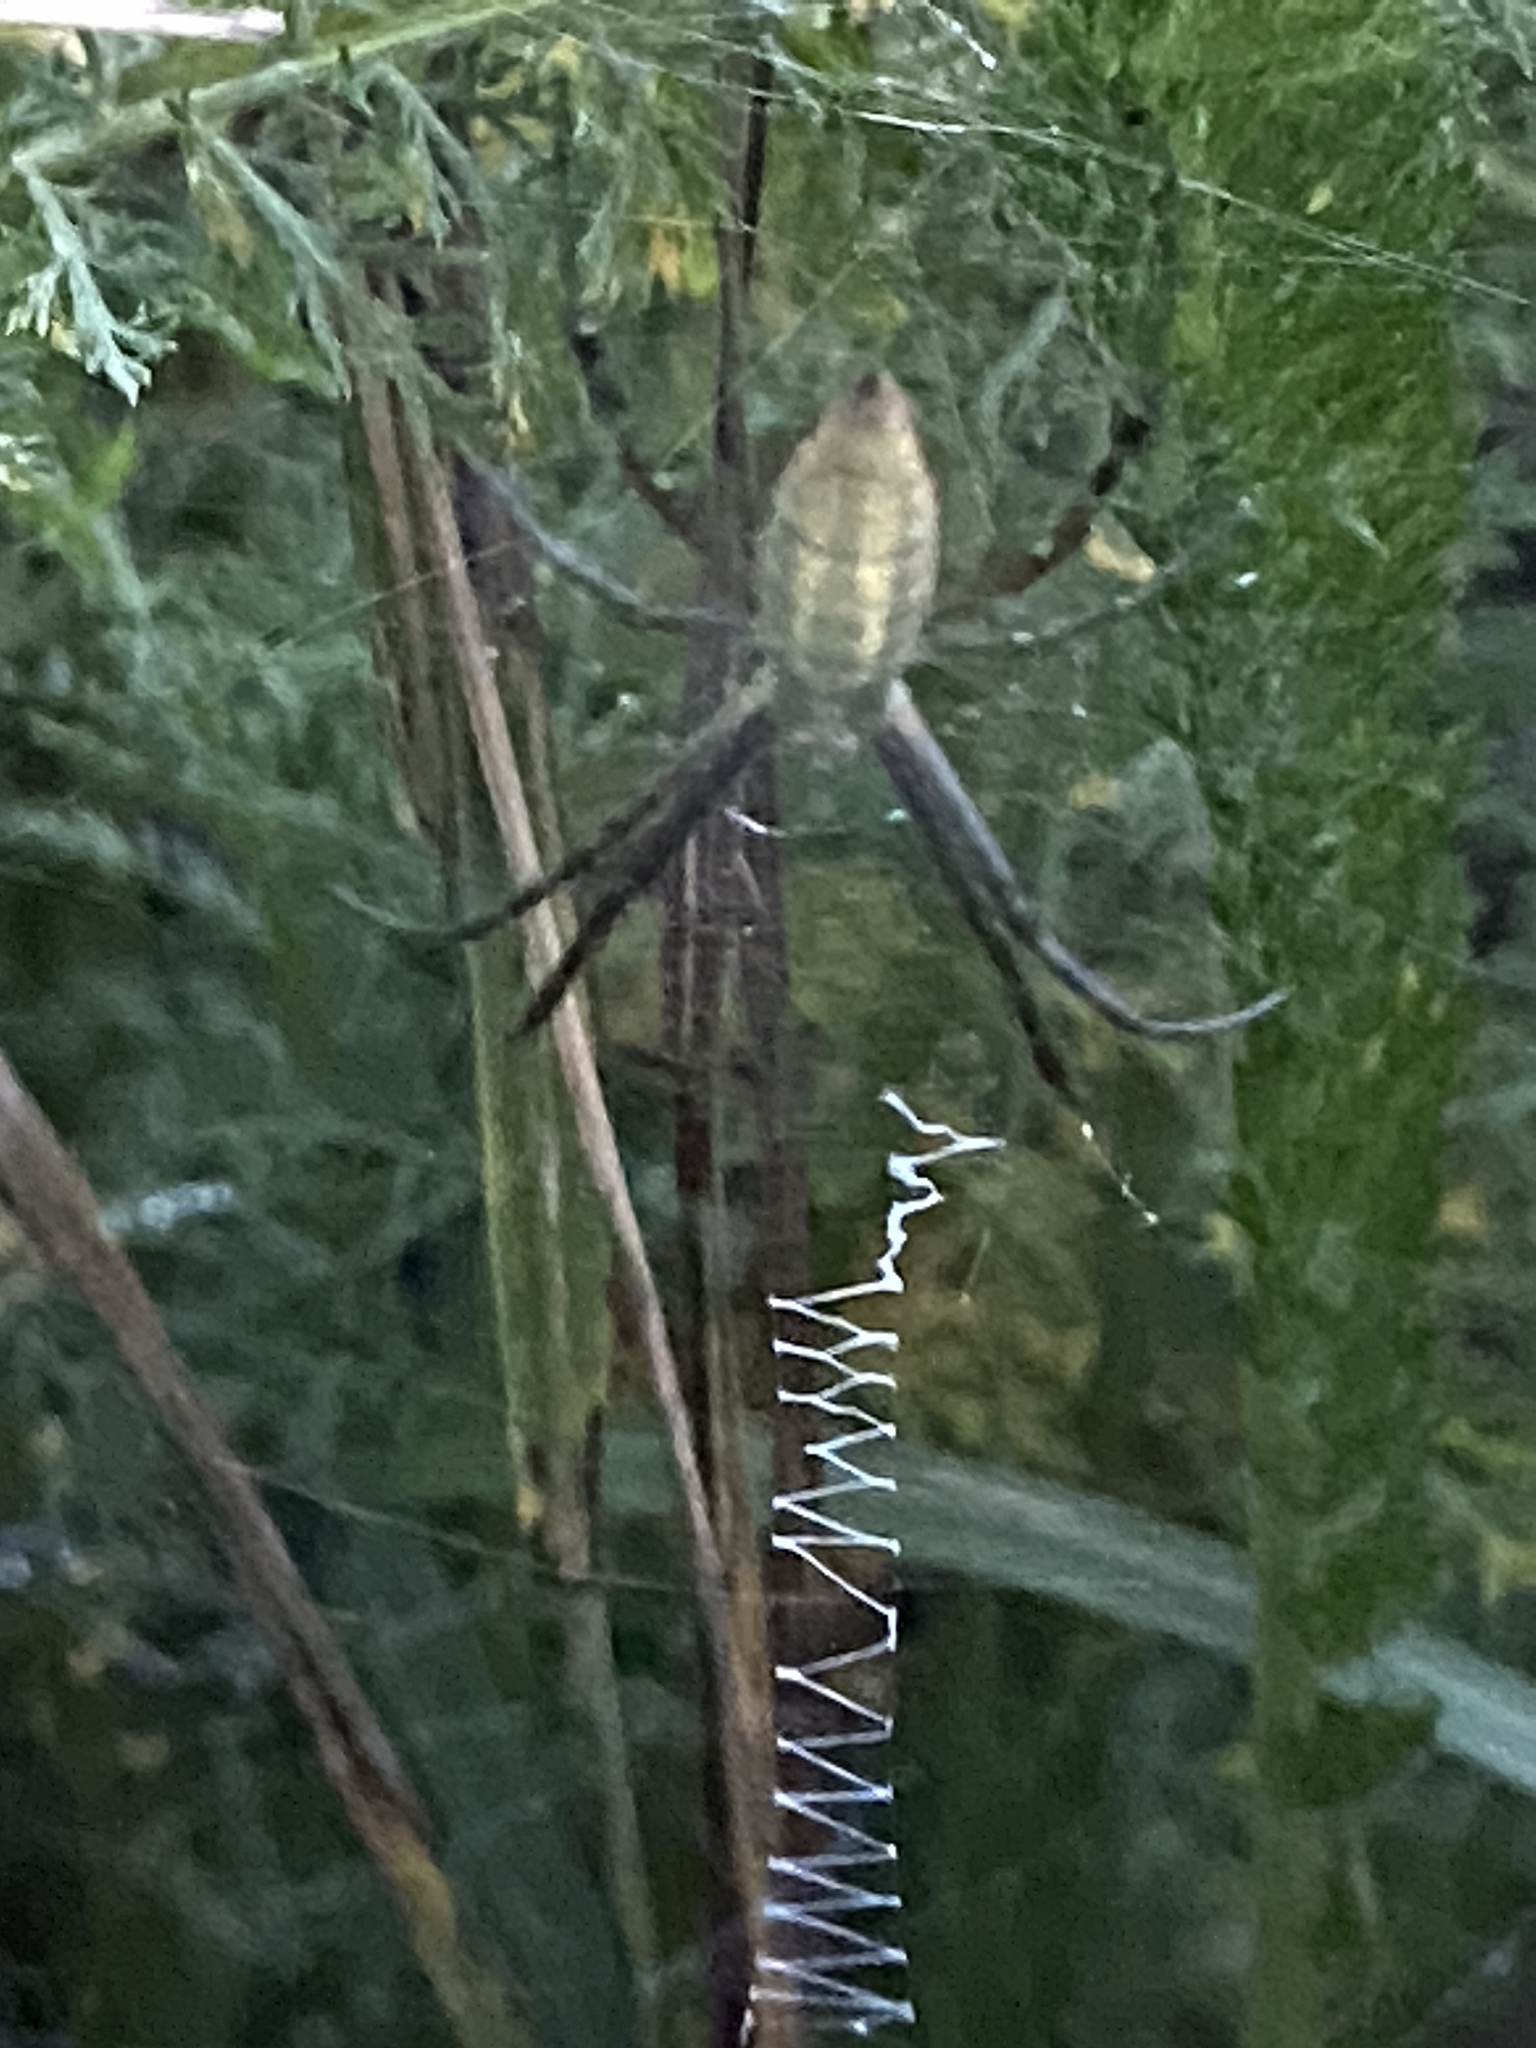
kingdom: Animalia
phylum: Arthropoda
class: Arachnida
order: Araneae
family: Araneidae
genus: Argiope
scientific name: Argiope trifasciata
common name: Banded garden spider
